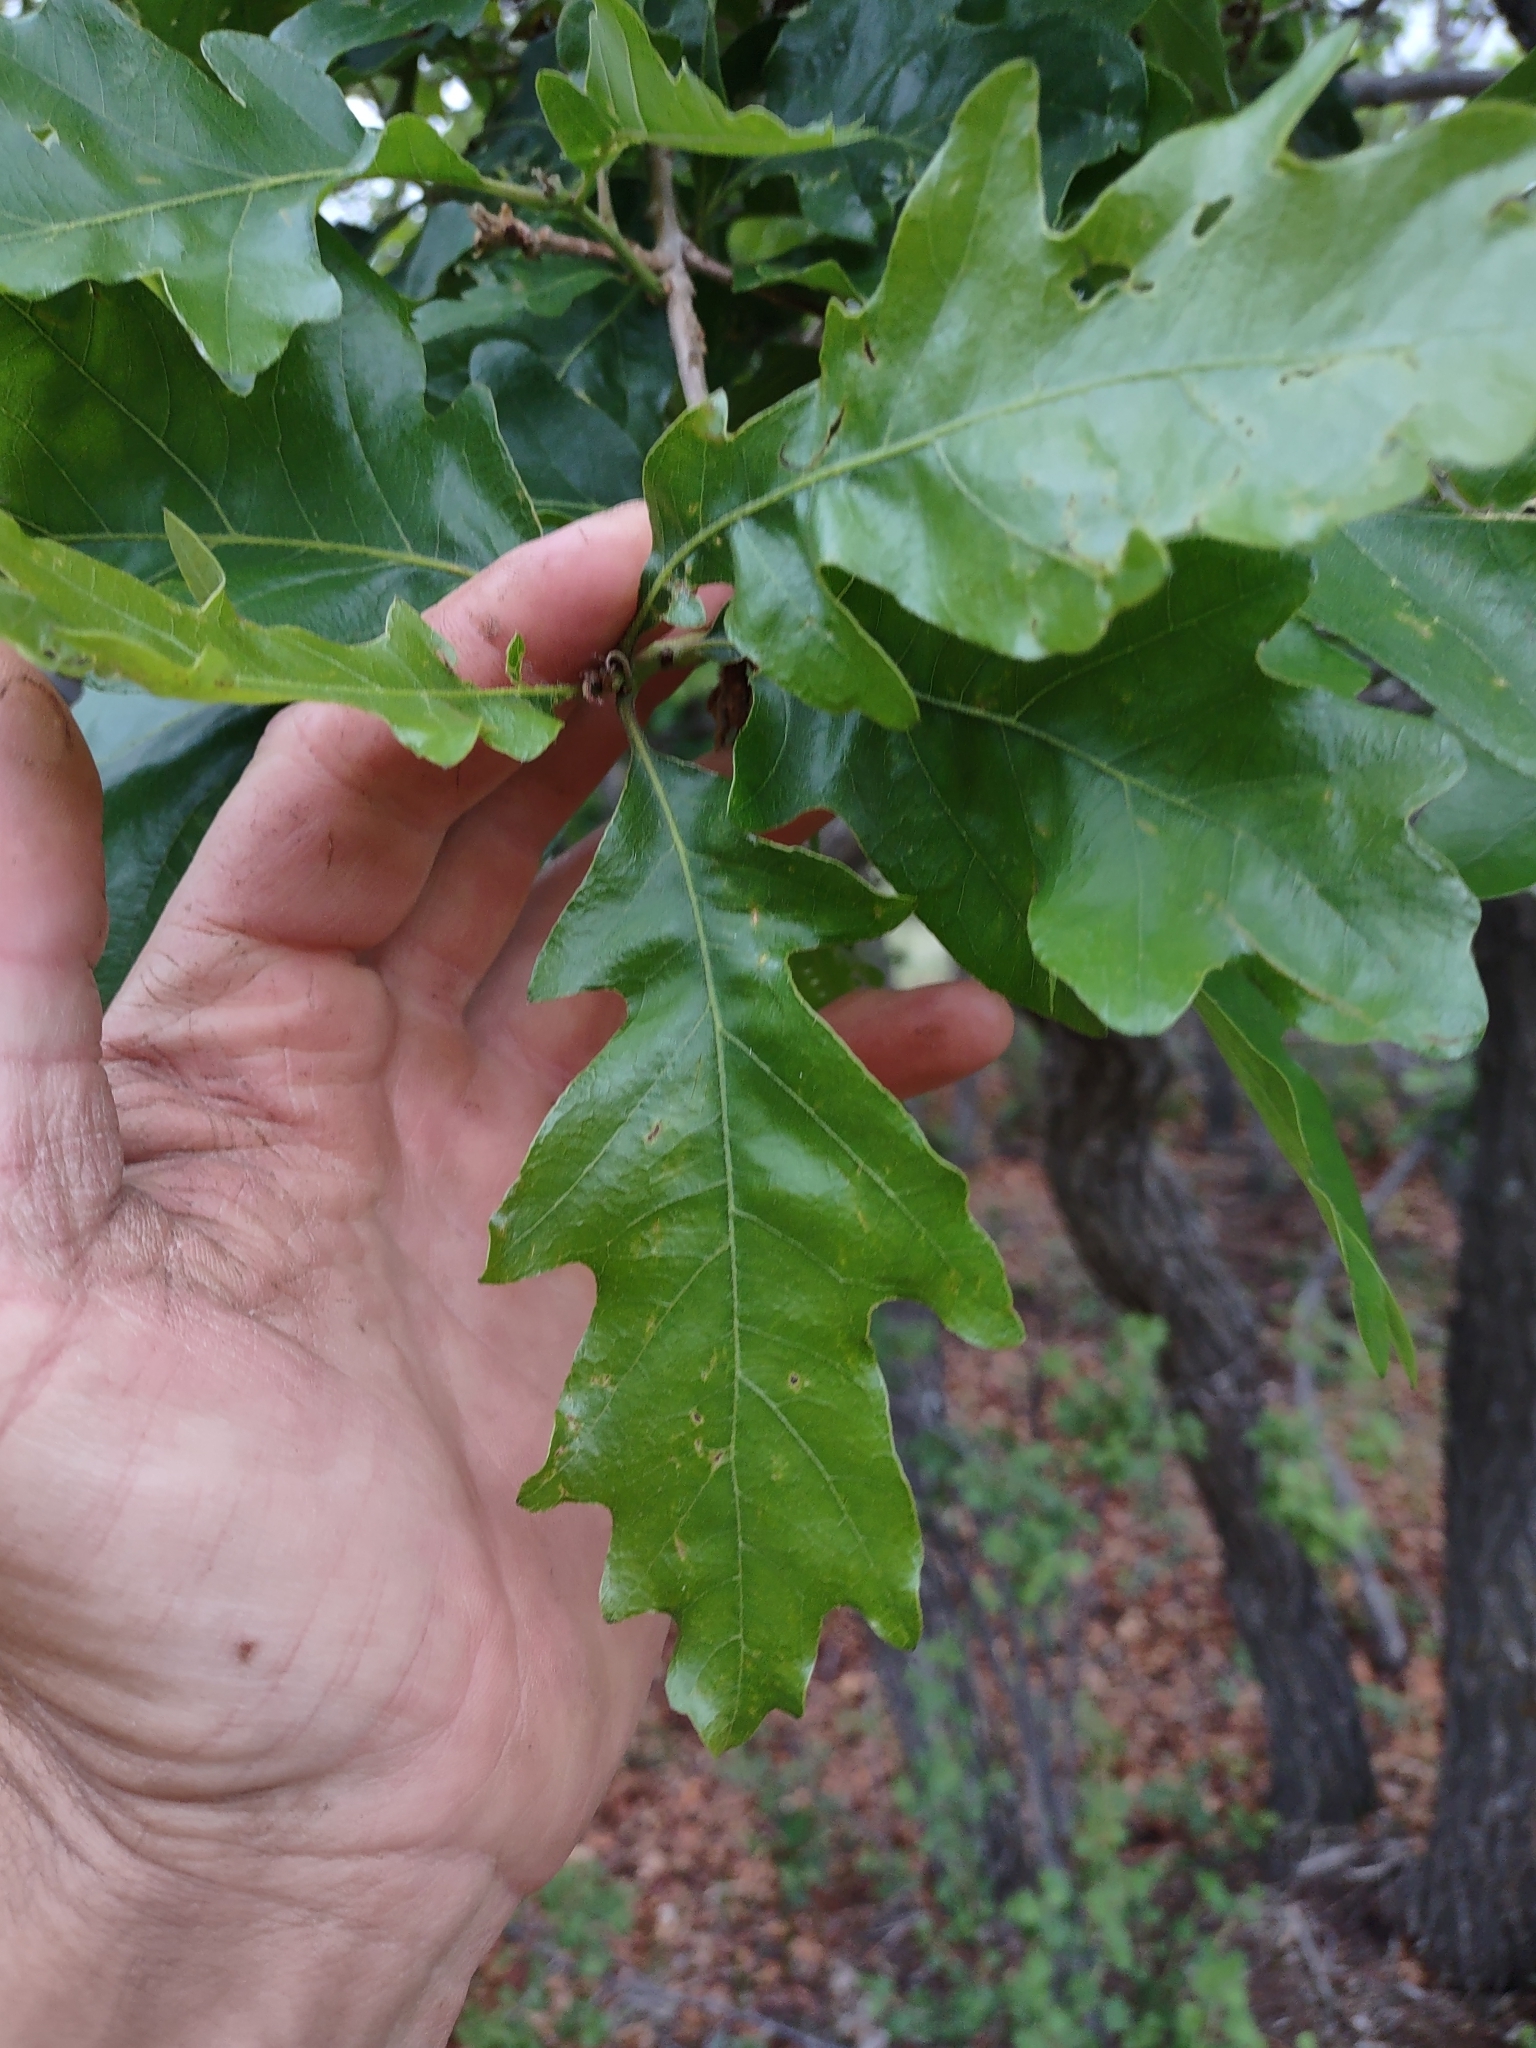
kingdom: Plantae
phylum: Tracheophyta
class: Magnoliopsida
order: Fagales
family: Fagaceae
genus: Quercus
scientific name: Quercus gambelii
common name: Gambel oak
